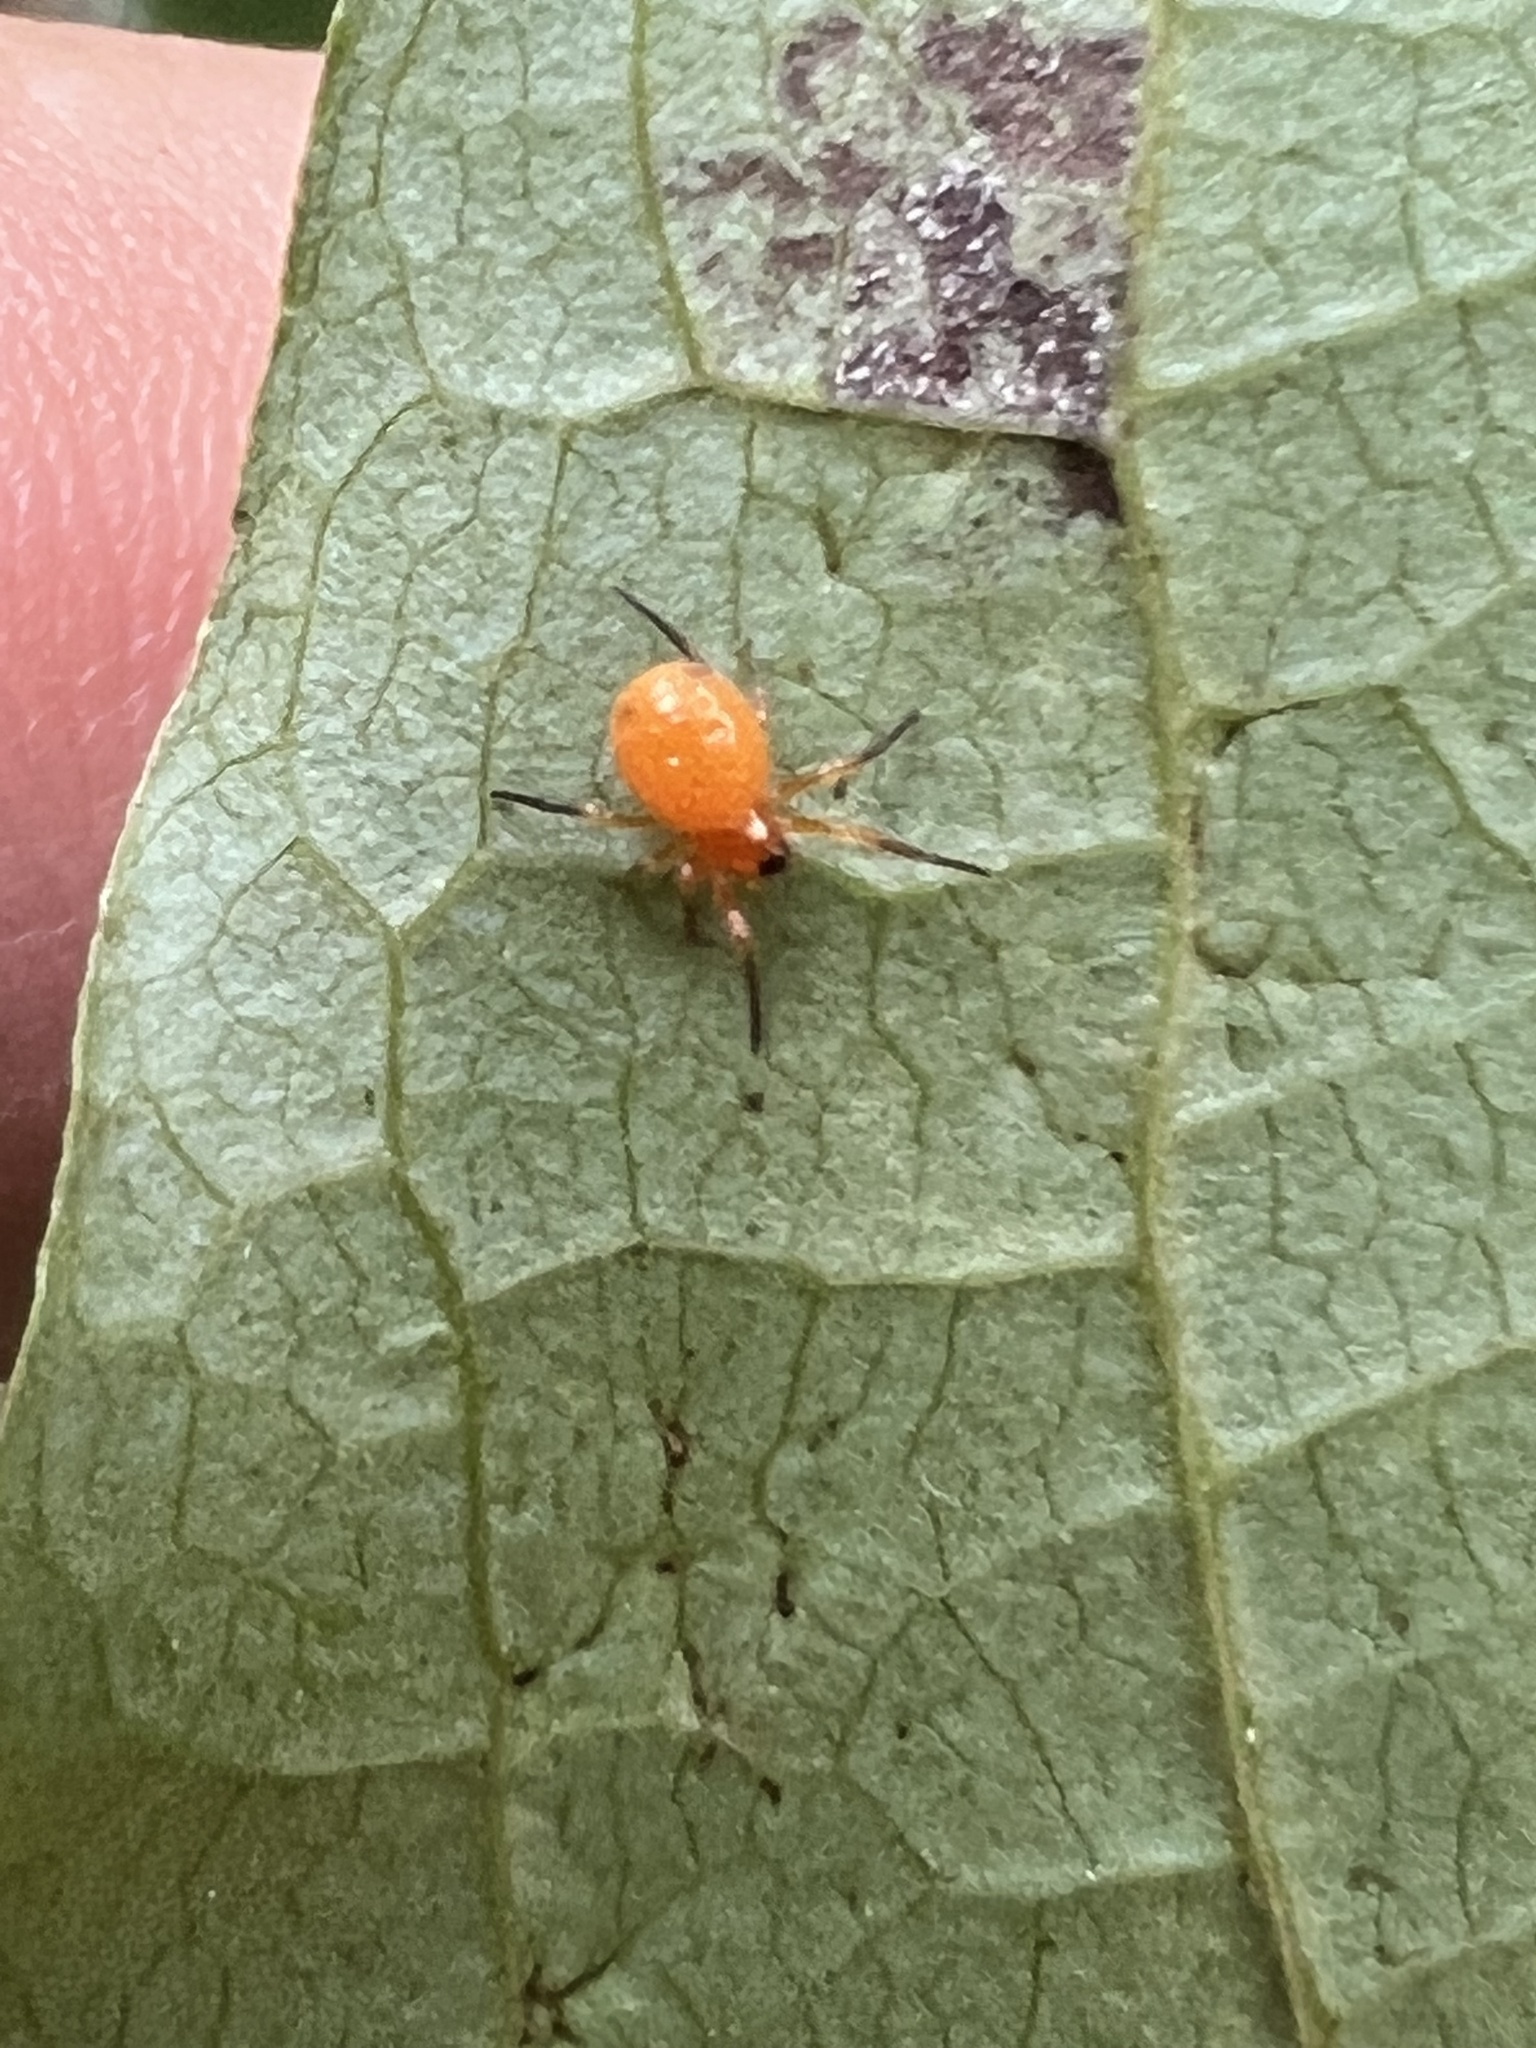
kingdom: Animalia
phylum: Arthropoda
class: Arachnida
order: Araneae
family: Araneidae
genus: Hypsosinga
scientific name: Hypsosinga rubens
